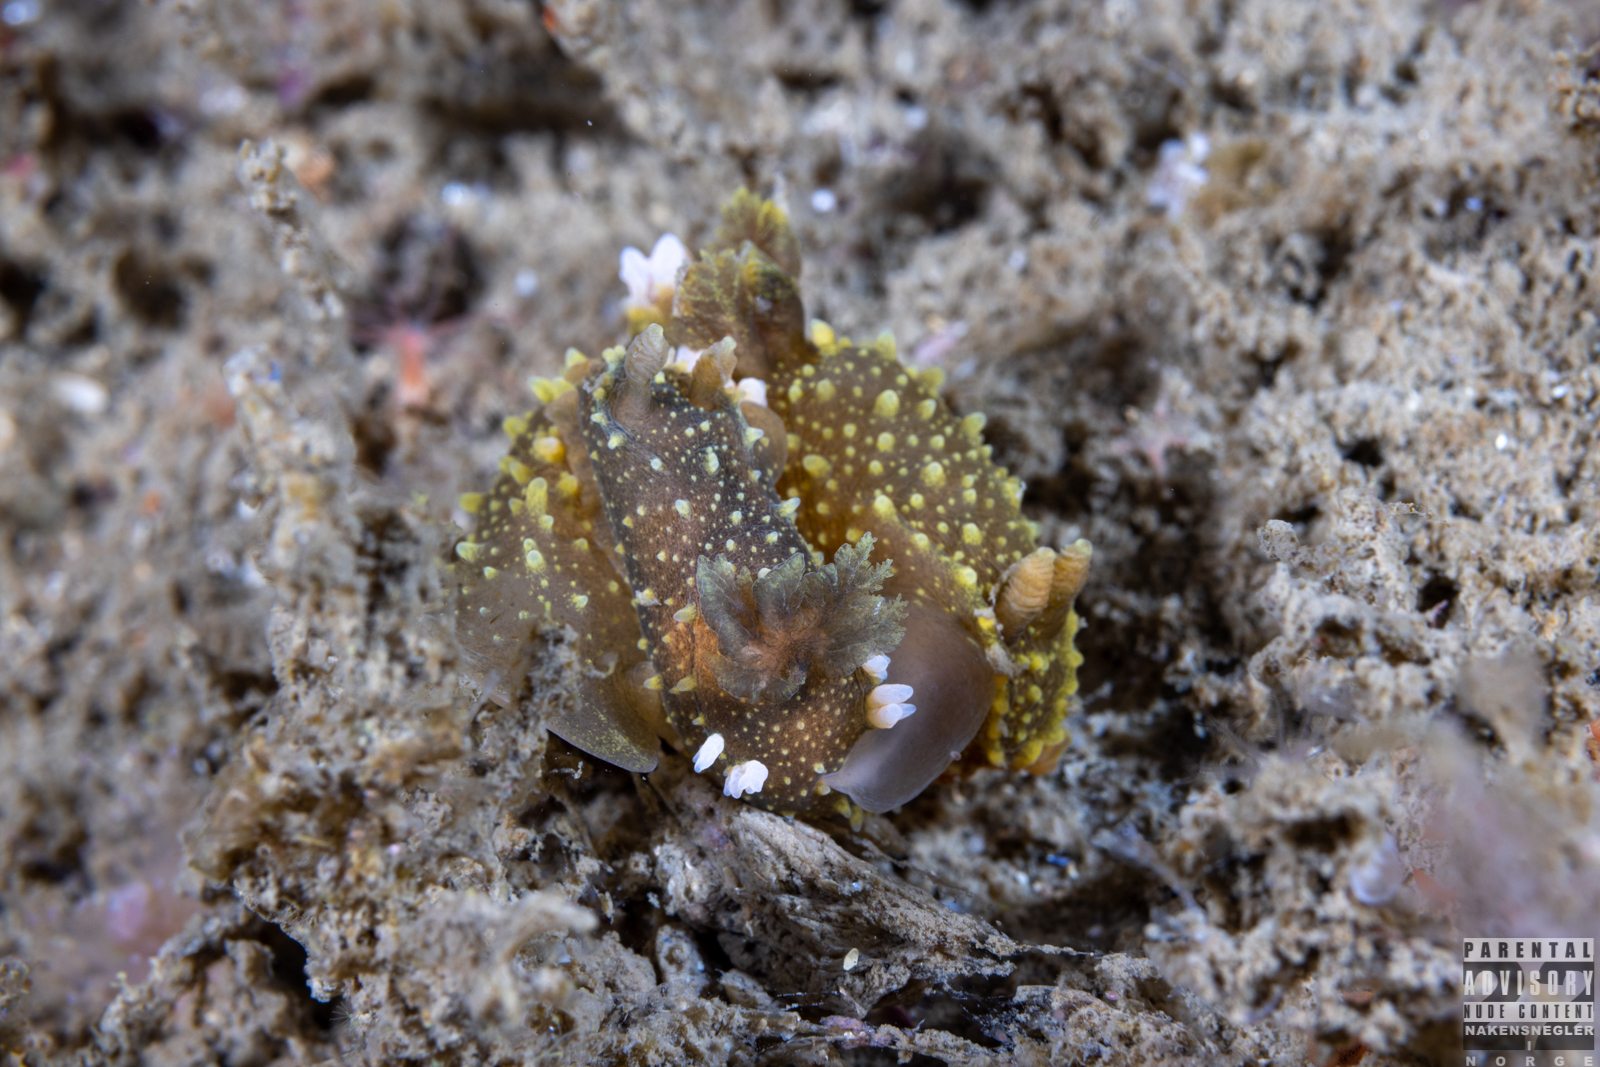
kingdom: Animalia
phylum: Mollusca
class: Gastropoda
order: Nudibranchia
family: Polyceridae
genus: Palio
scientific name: Palio dubia
